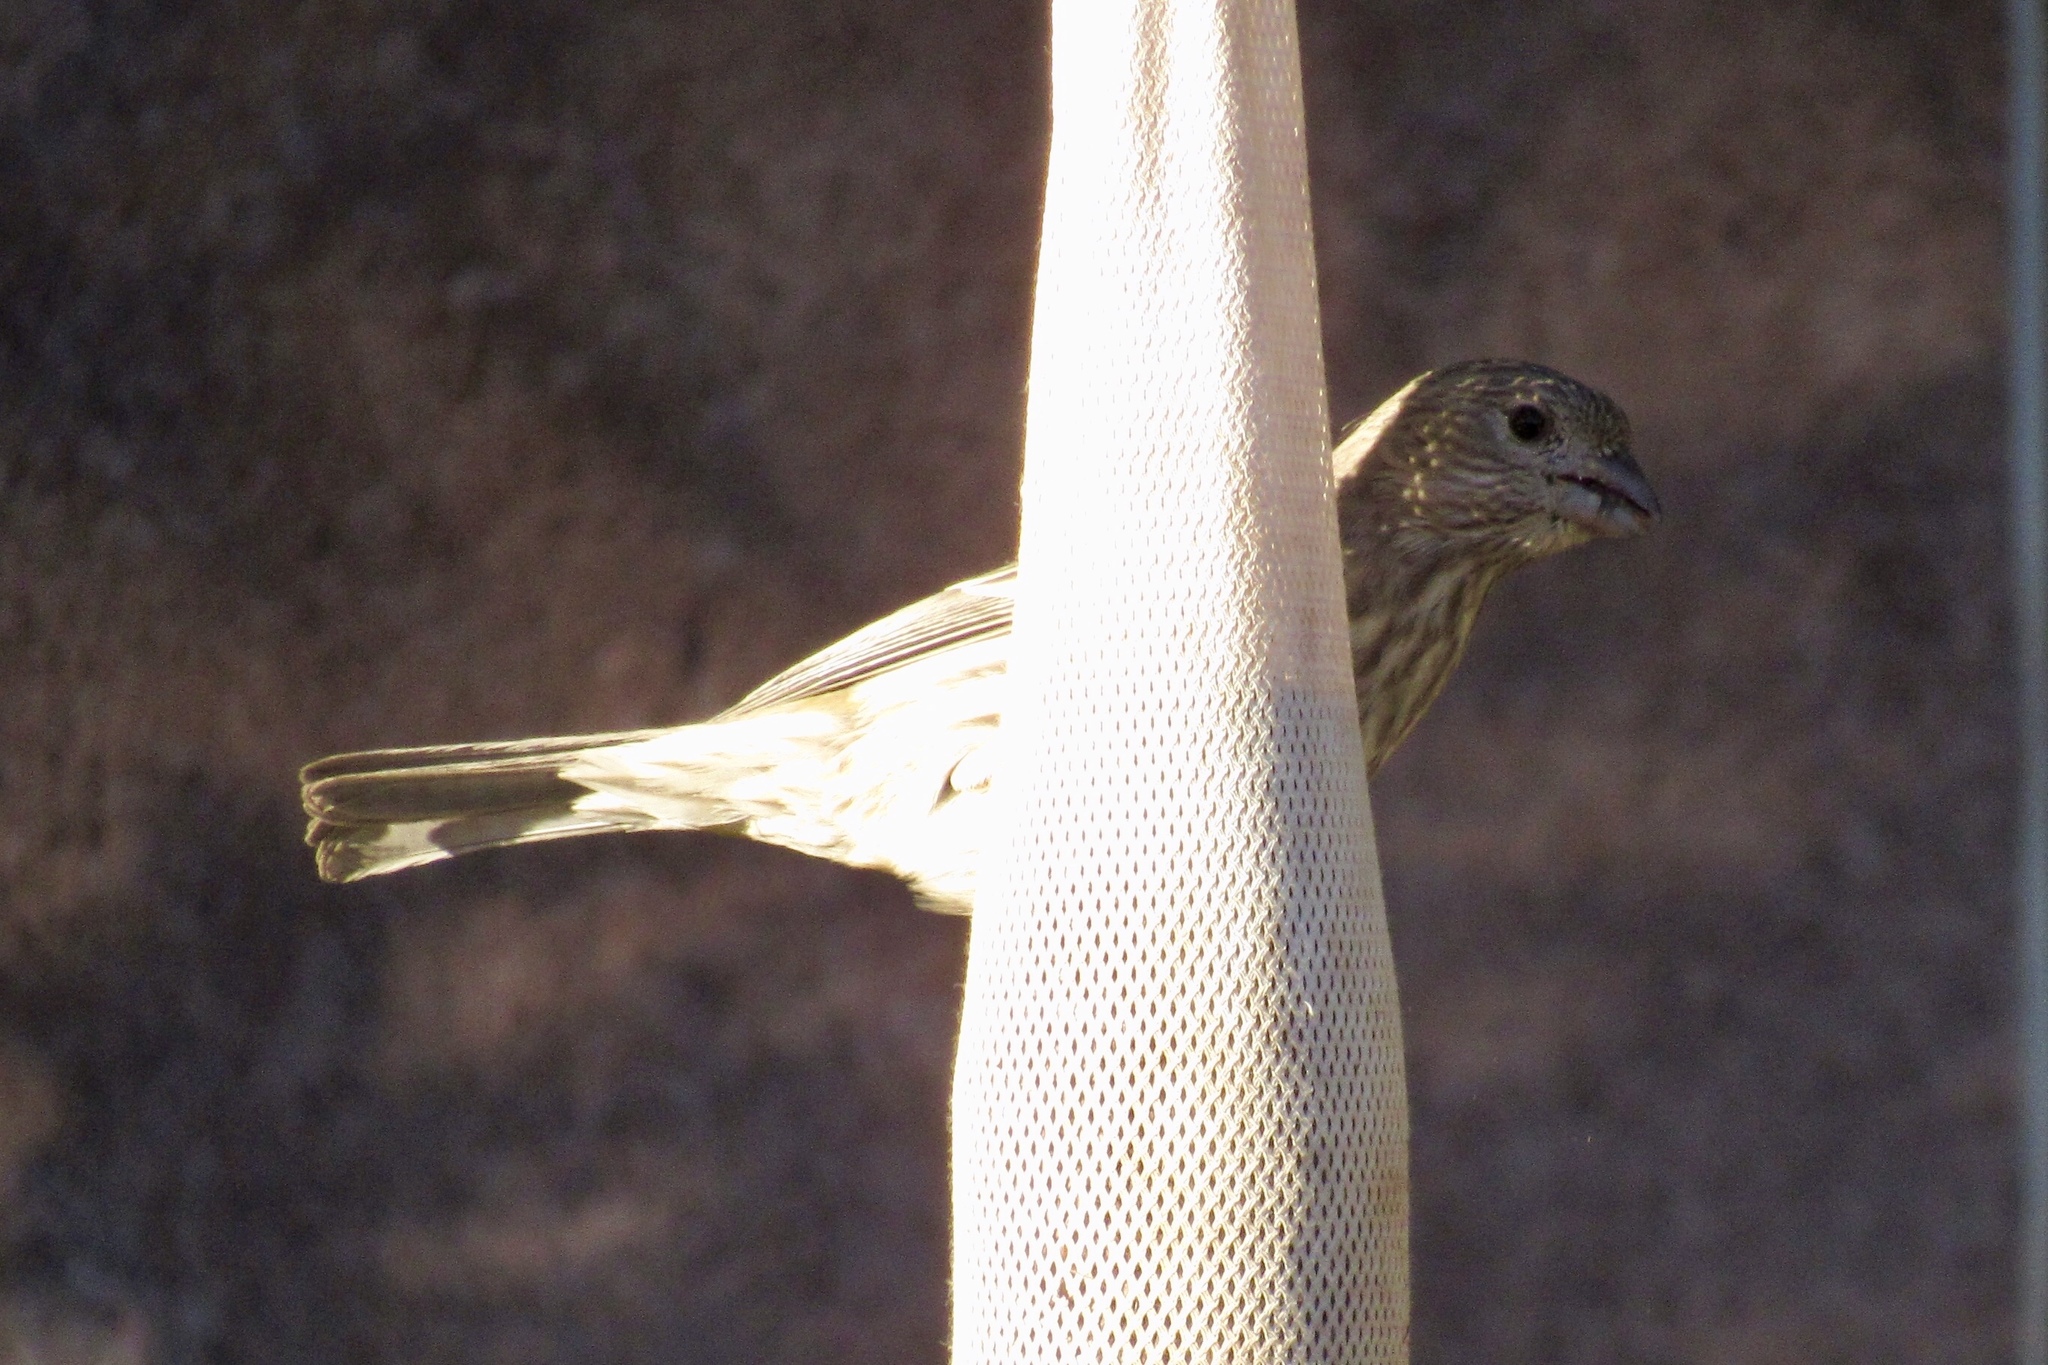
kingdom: Animalia
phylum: Chordata
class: Aves
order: Passeriformes
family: Fringillidae
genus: Haemorhous
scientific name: Haemorhous mexicanus
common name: House finch
